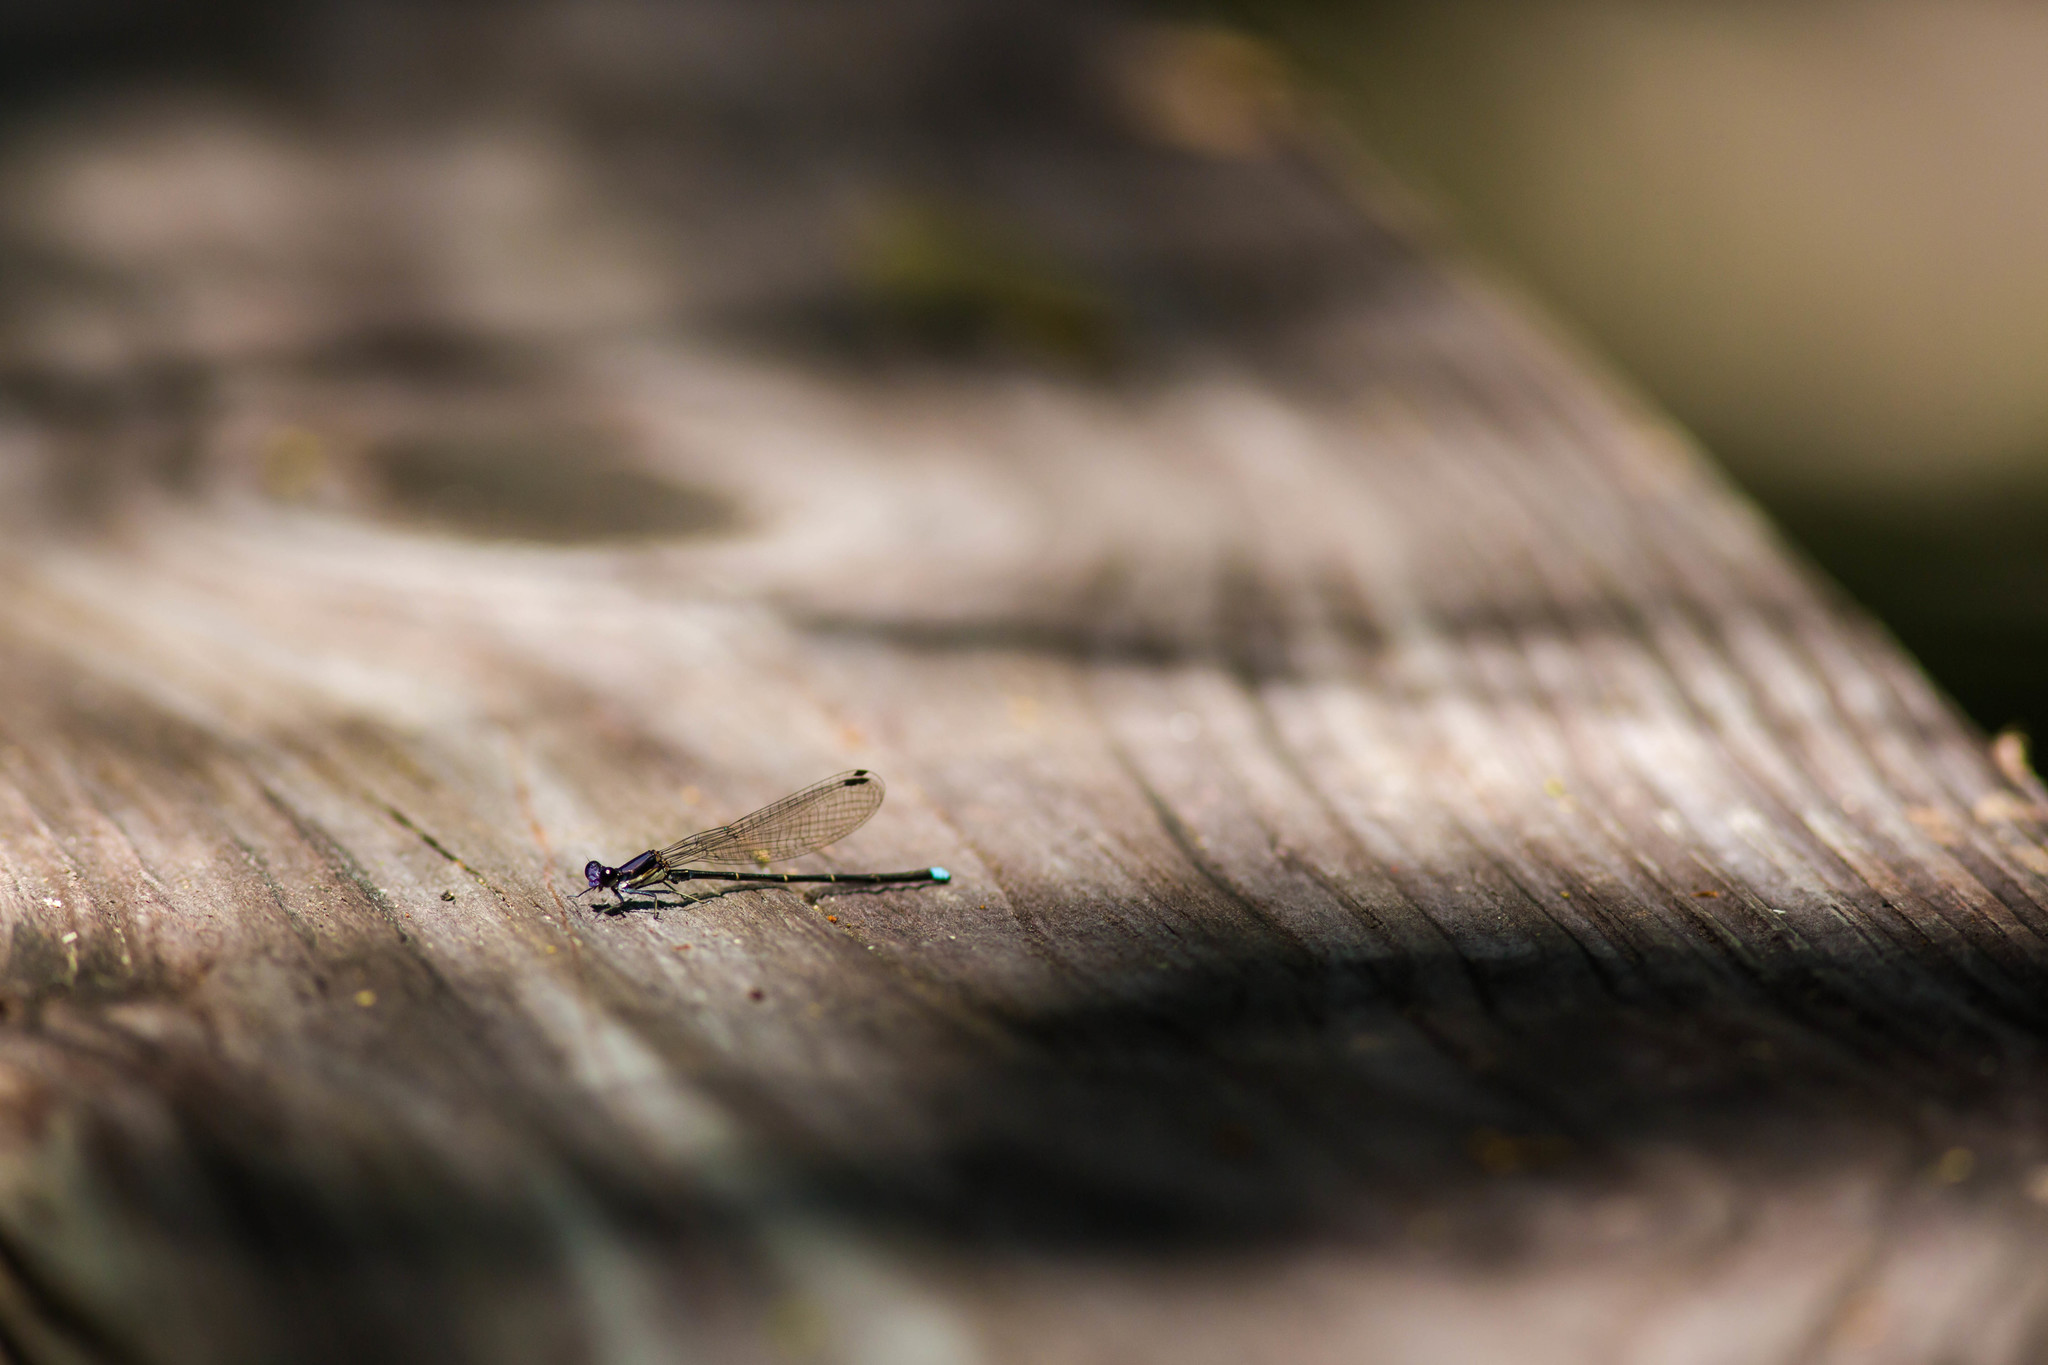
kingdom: Animalia
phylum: Arthropoda
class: Insecta
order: Odonata
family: Coenagrionidae
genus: Argia
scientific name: Argia tibialis
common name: Blue-tipped dancer
